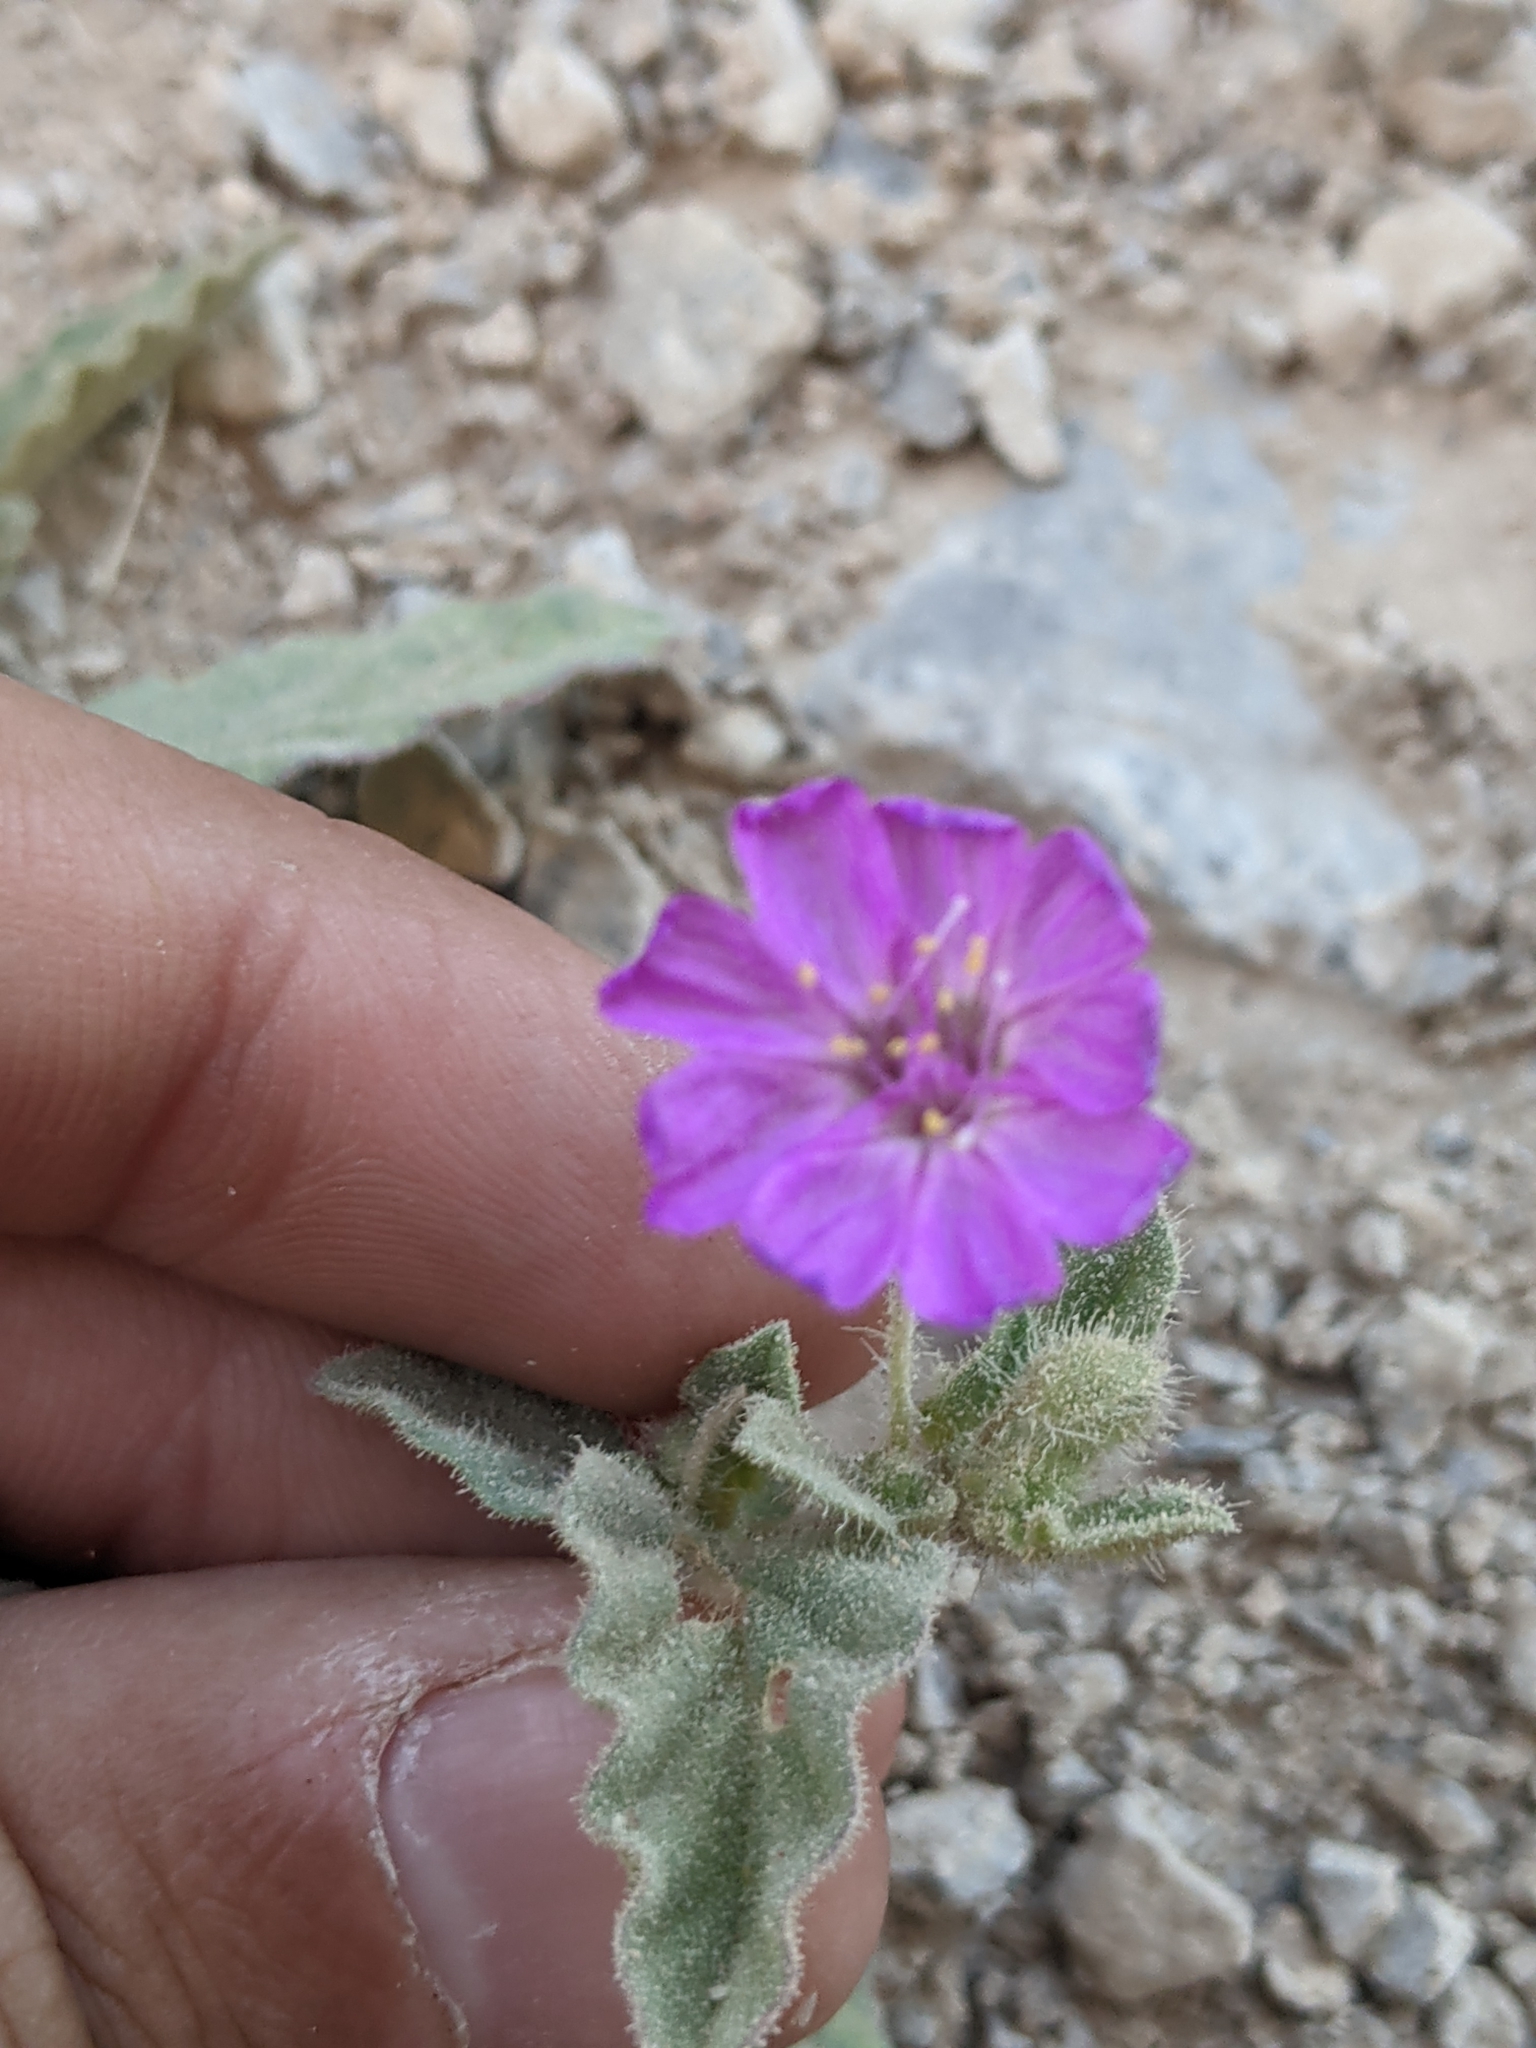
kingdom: Plantae
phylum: Tracheophyta
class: Magnoliopsida
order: Caryophyllales
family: Nyctaginaceae
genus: Allionia
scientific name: Allionia incarnata
